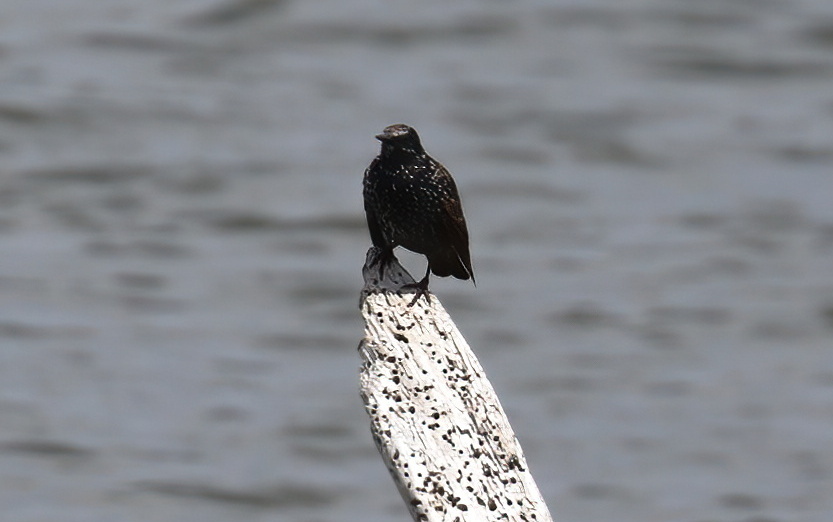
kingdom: Animalia
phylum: Chordata
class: Aves
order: Passeriformes
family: Sturnidae
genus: Sturnus
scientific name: Sturnus vulgaris
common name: Common starling
